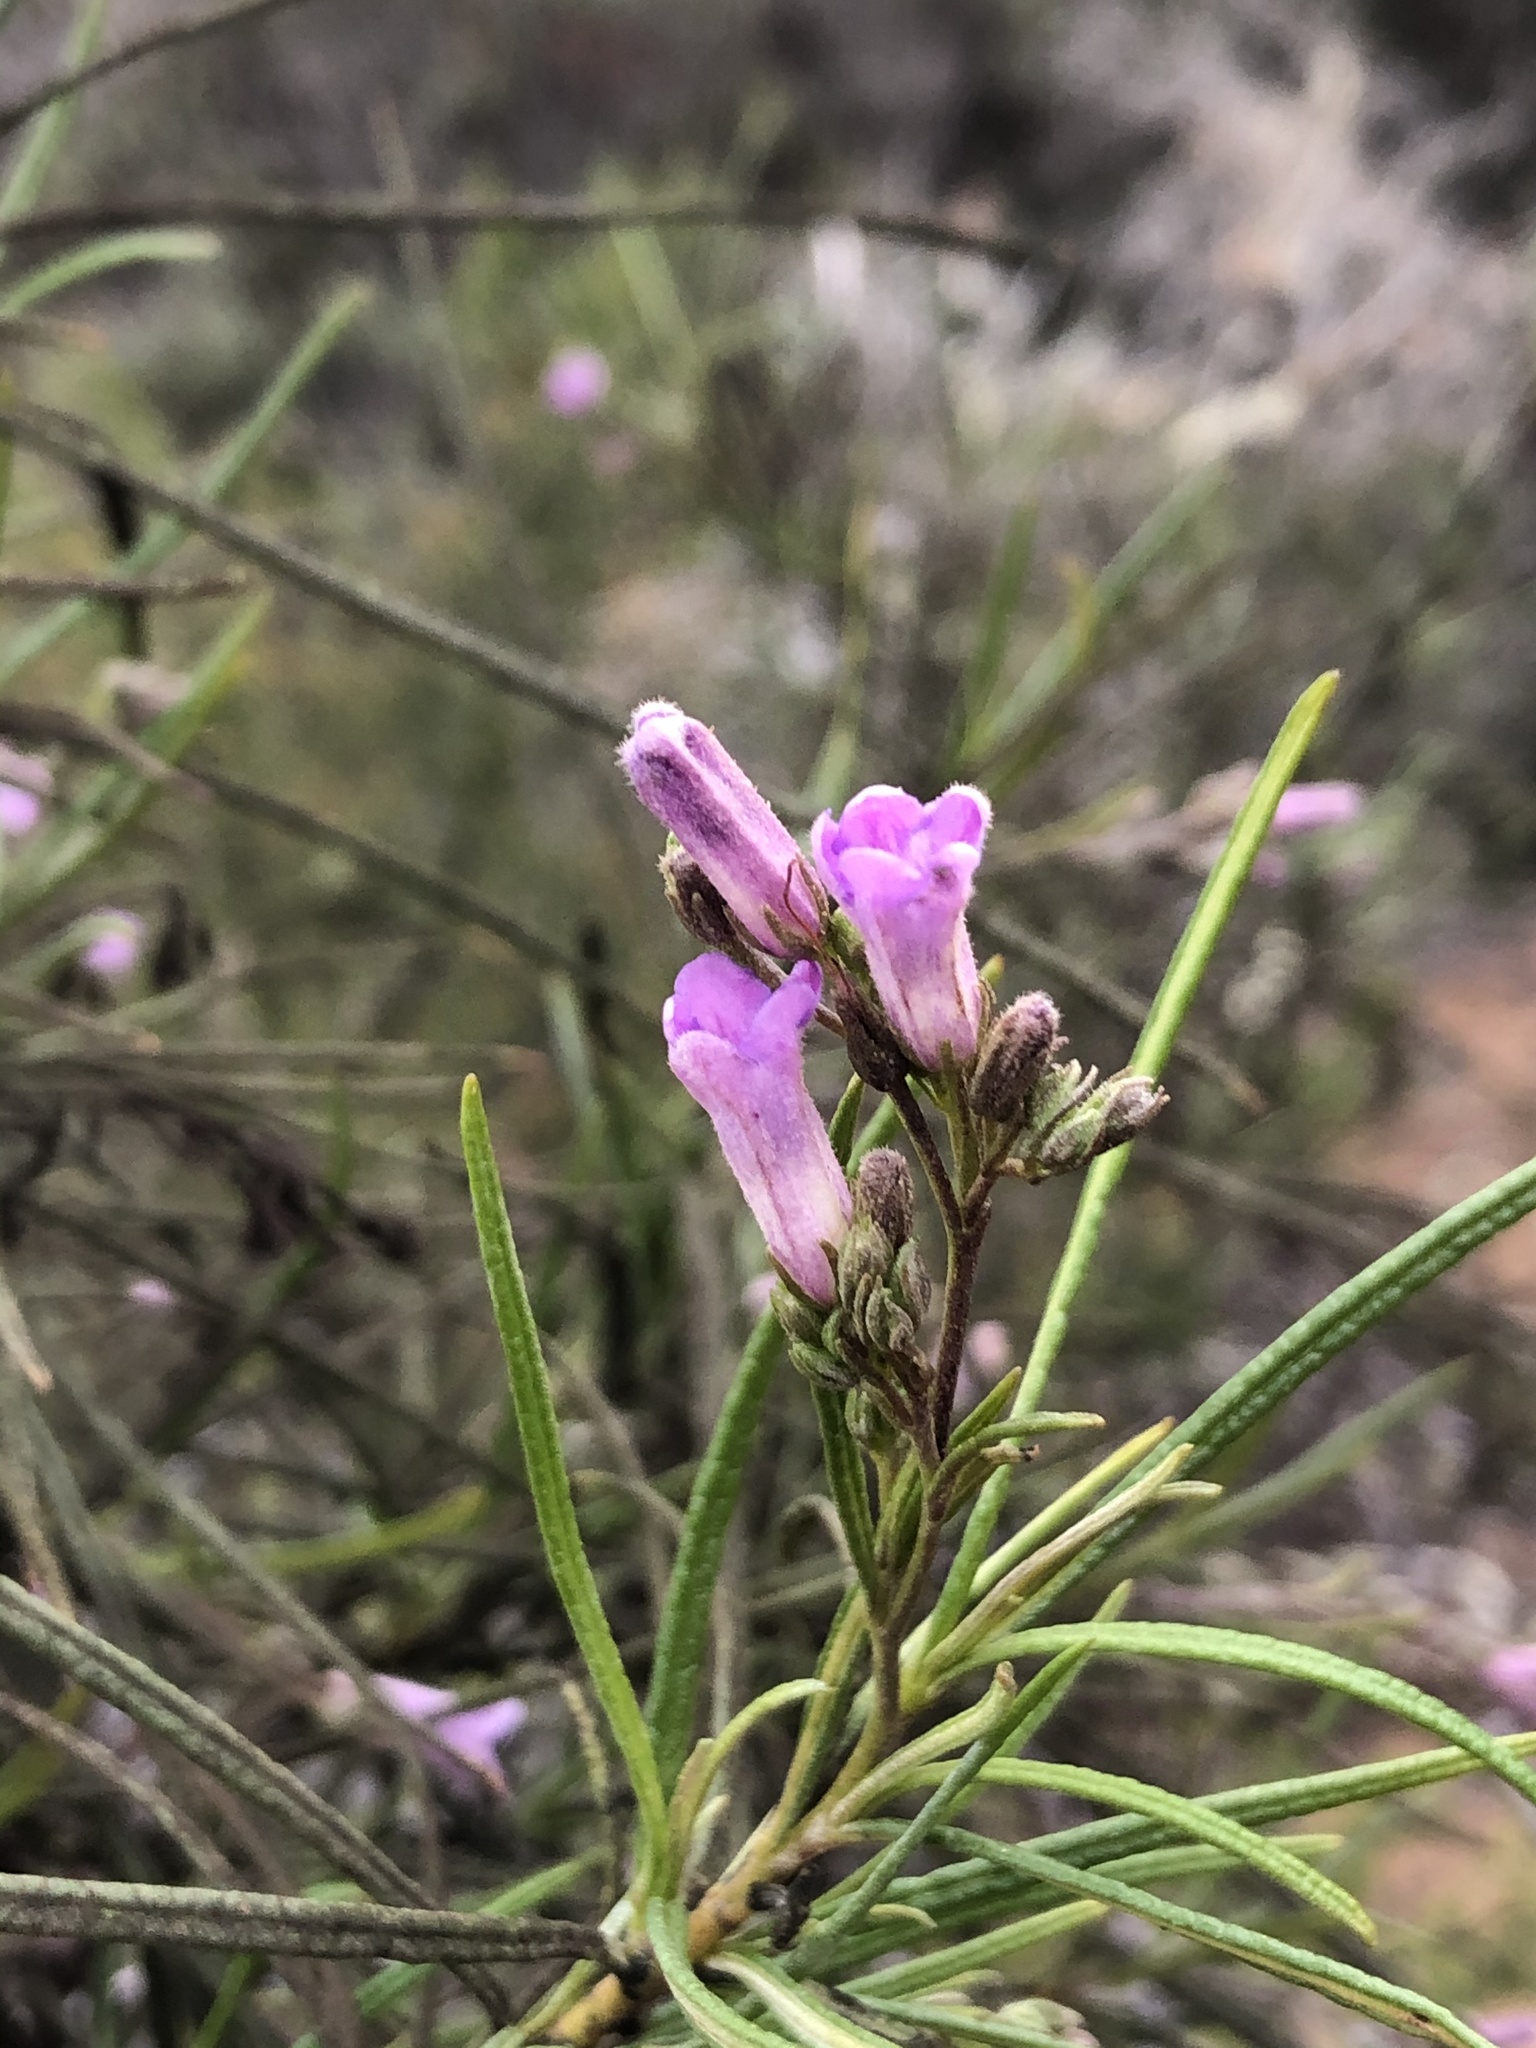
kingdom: Plantae
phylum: Tracheophyta
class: Magnoliopsida
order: Boraginales
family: Namaceae
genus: Eriodictyon
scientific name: Eriodictyon altissimum
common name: Indian knob mountain balm
